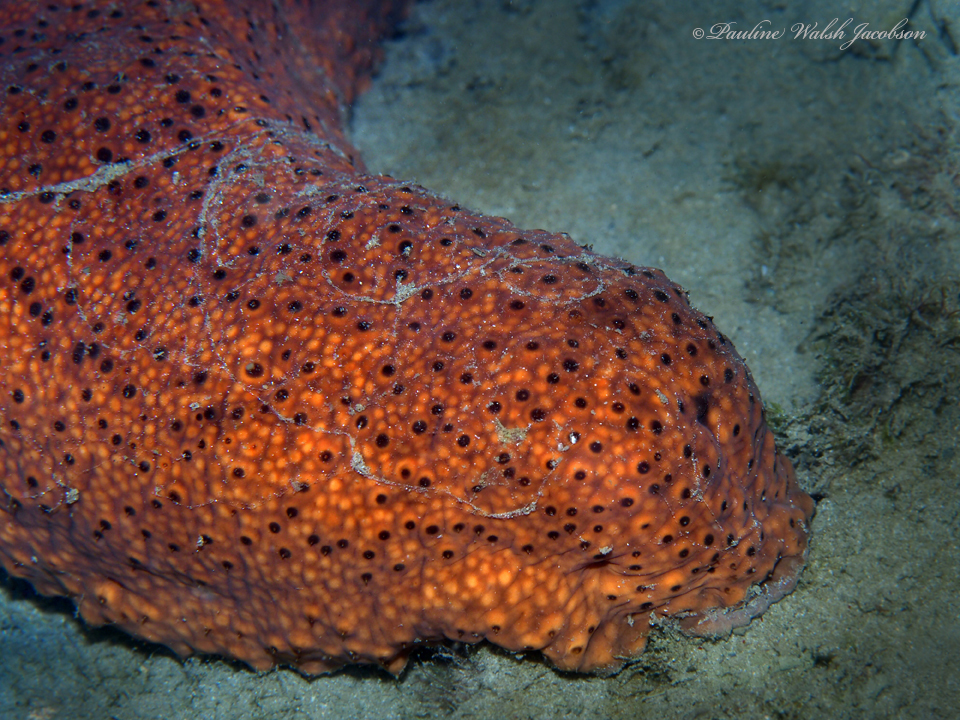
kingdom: Animalia
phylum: Echinodermata
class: Holothuroidea
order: Synallactida
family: Stichopodidae
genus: Isostichopus
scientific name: Isostichopus badionotus
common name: Chocolate chip cucumber
